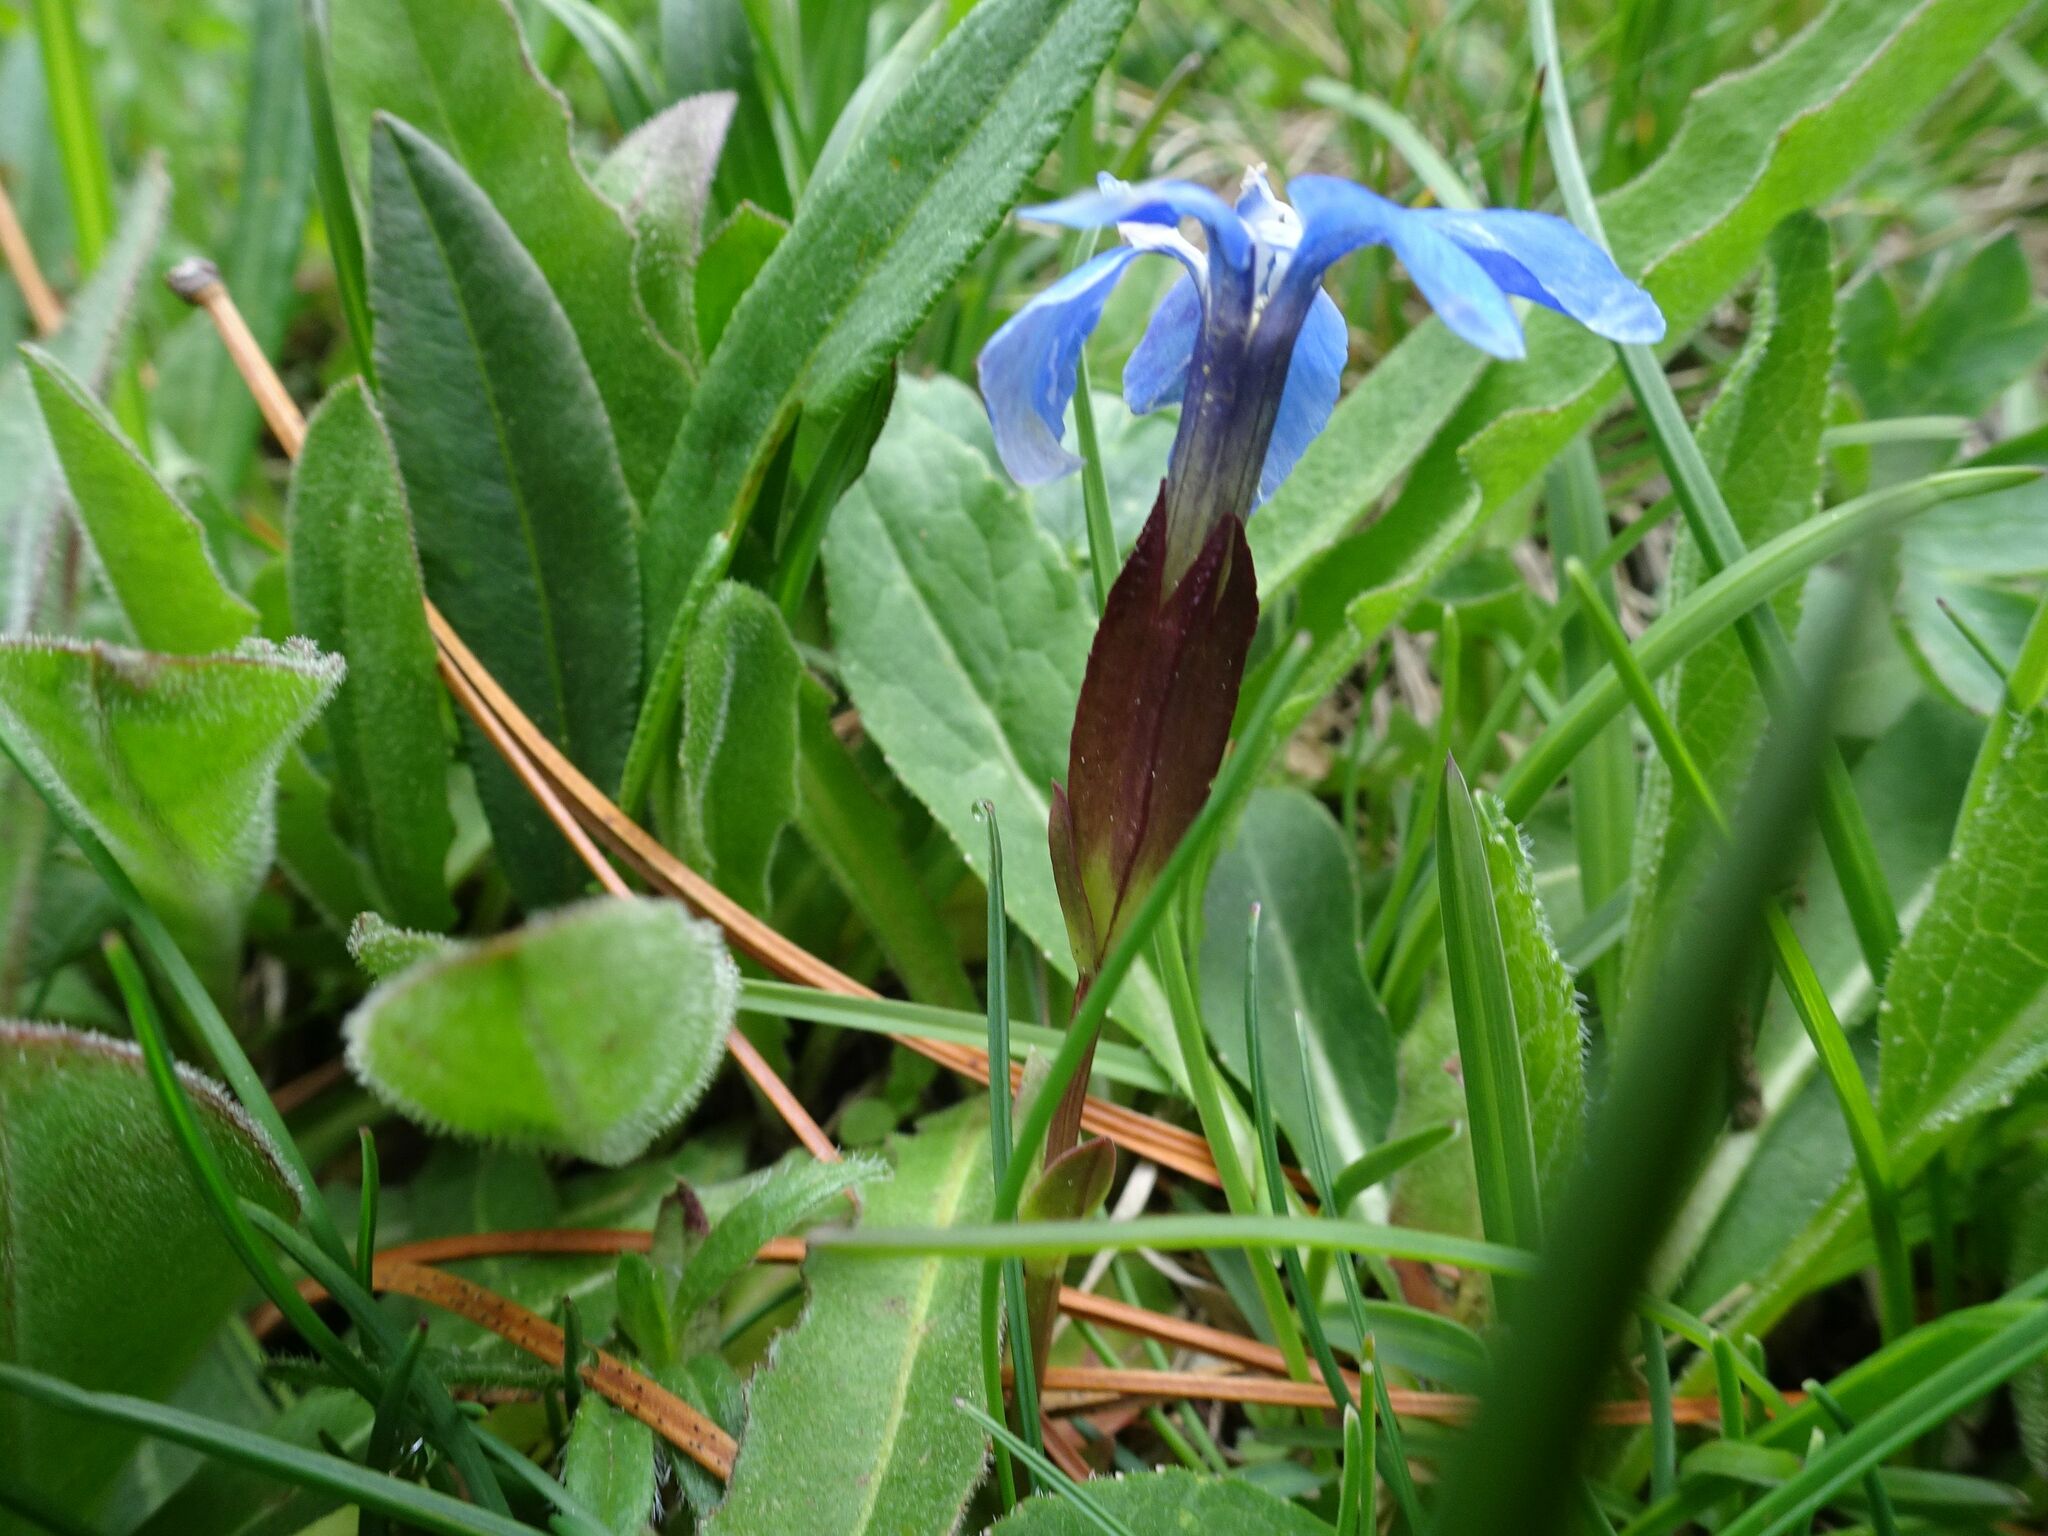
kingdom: Plantae
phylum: Tracheophyta
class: Magnoliopsida
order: Gentianales
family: Gentianaceae
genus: Gentiana
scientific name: Gentiana verna
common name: Spring gentian
